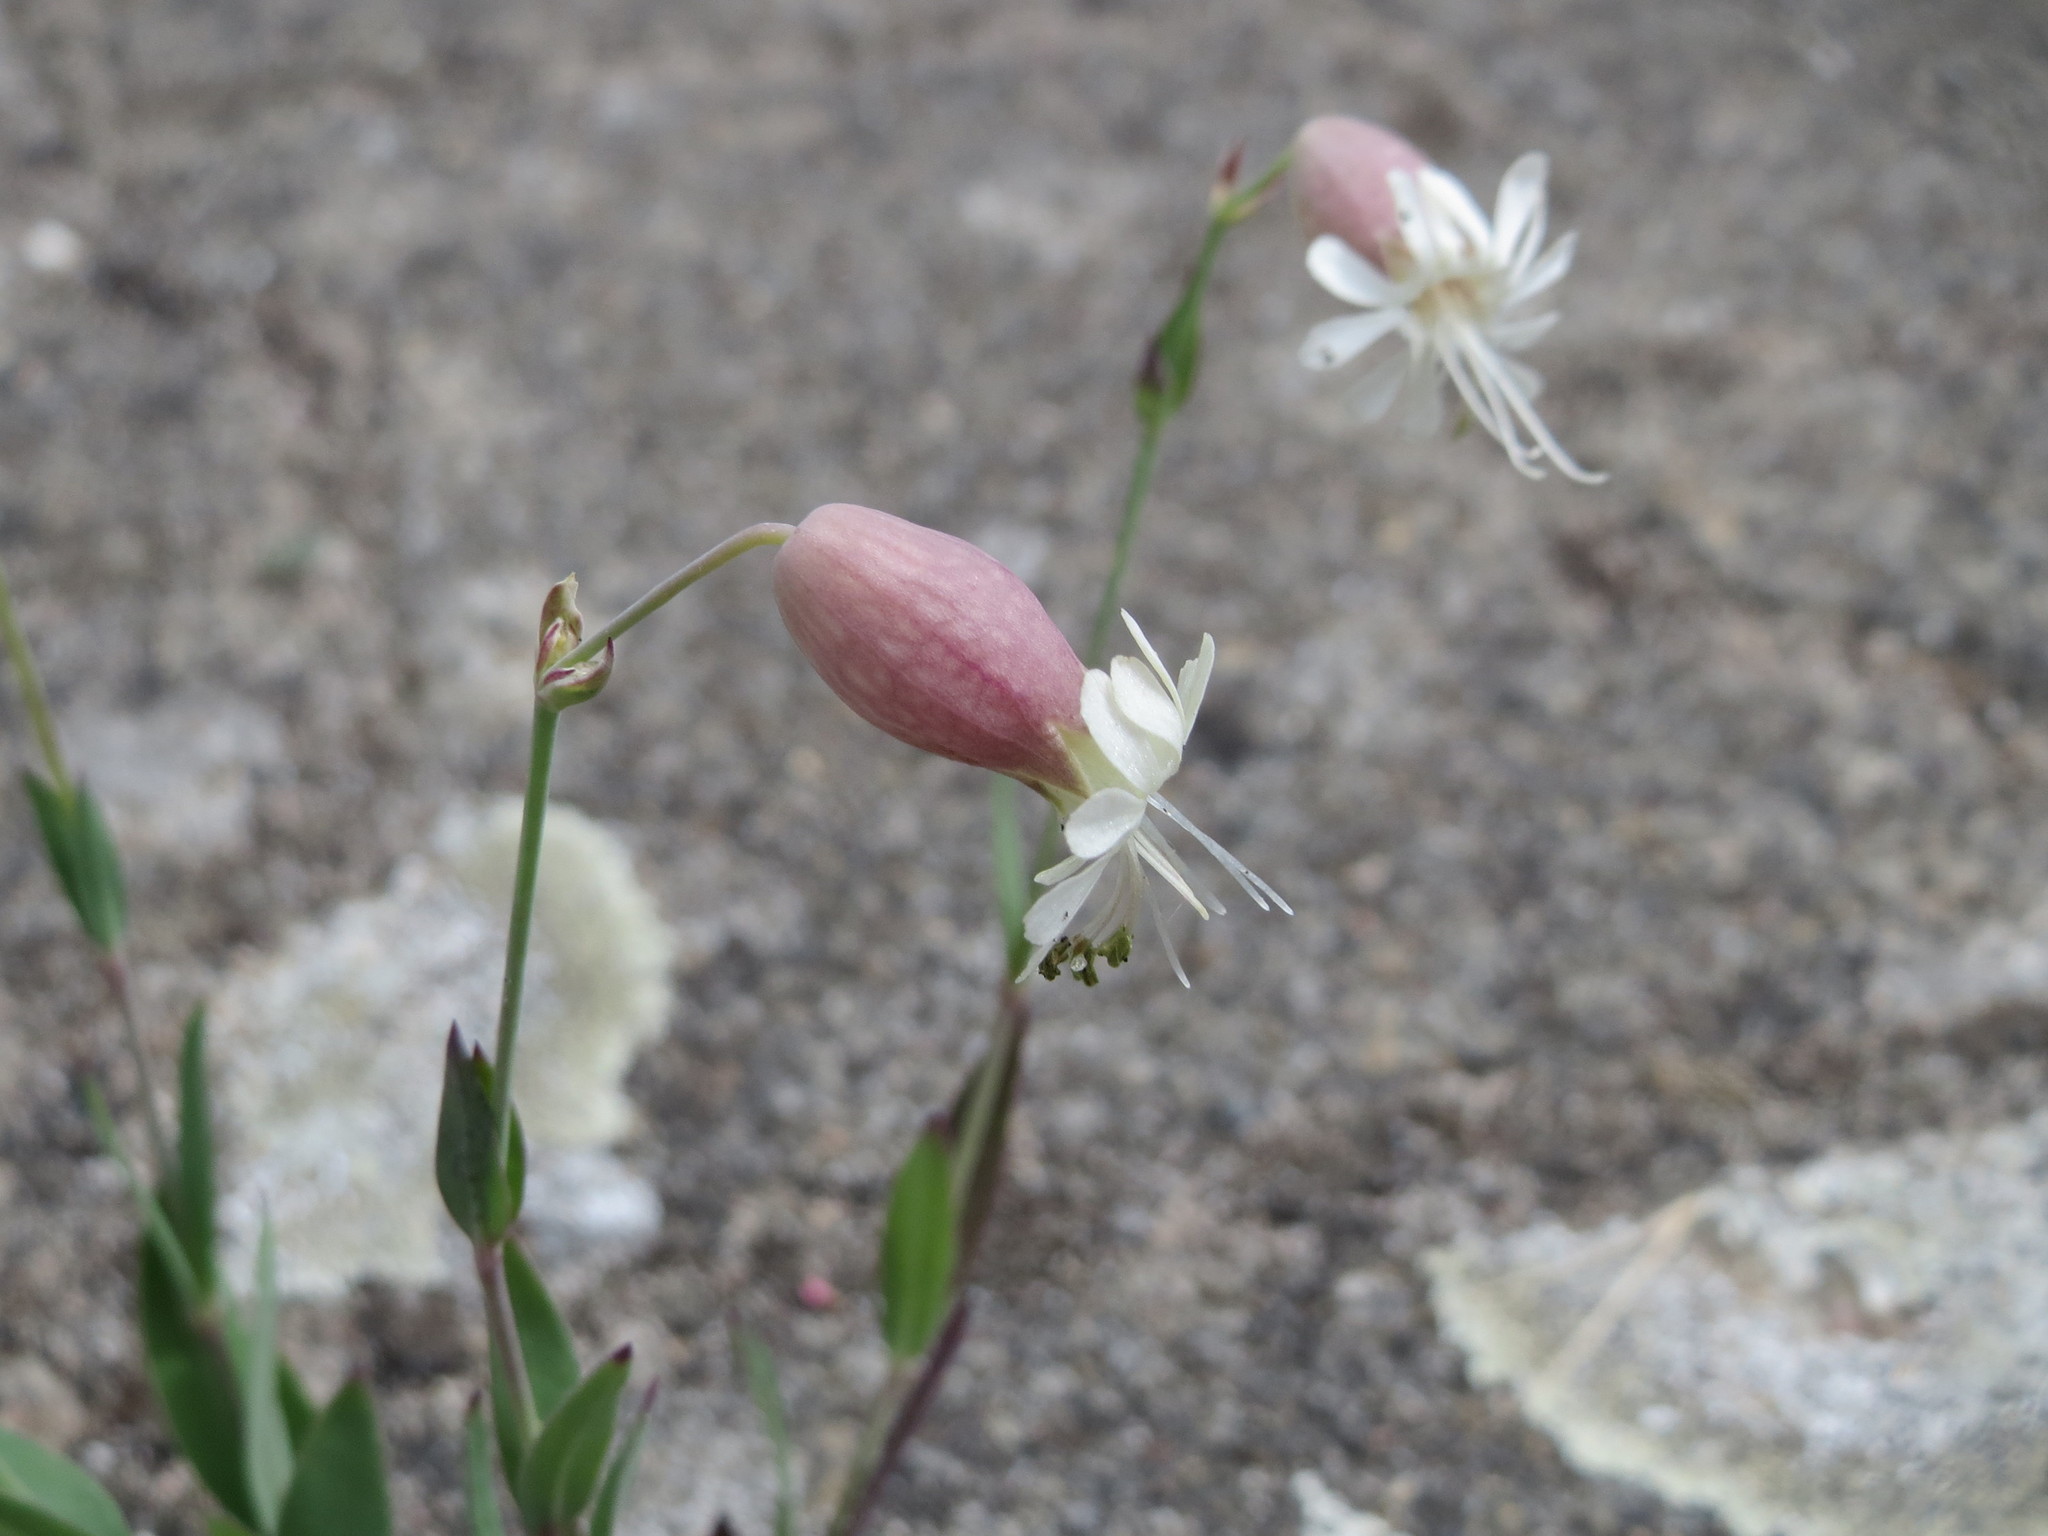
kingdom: Plantae
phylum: Tracheophyta
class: Magnoliopsida
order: Caryophyllales
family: Caryophyllaceae
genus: Silene
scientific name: Silene vulgaris
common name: Bladder campion
